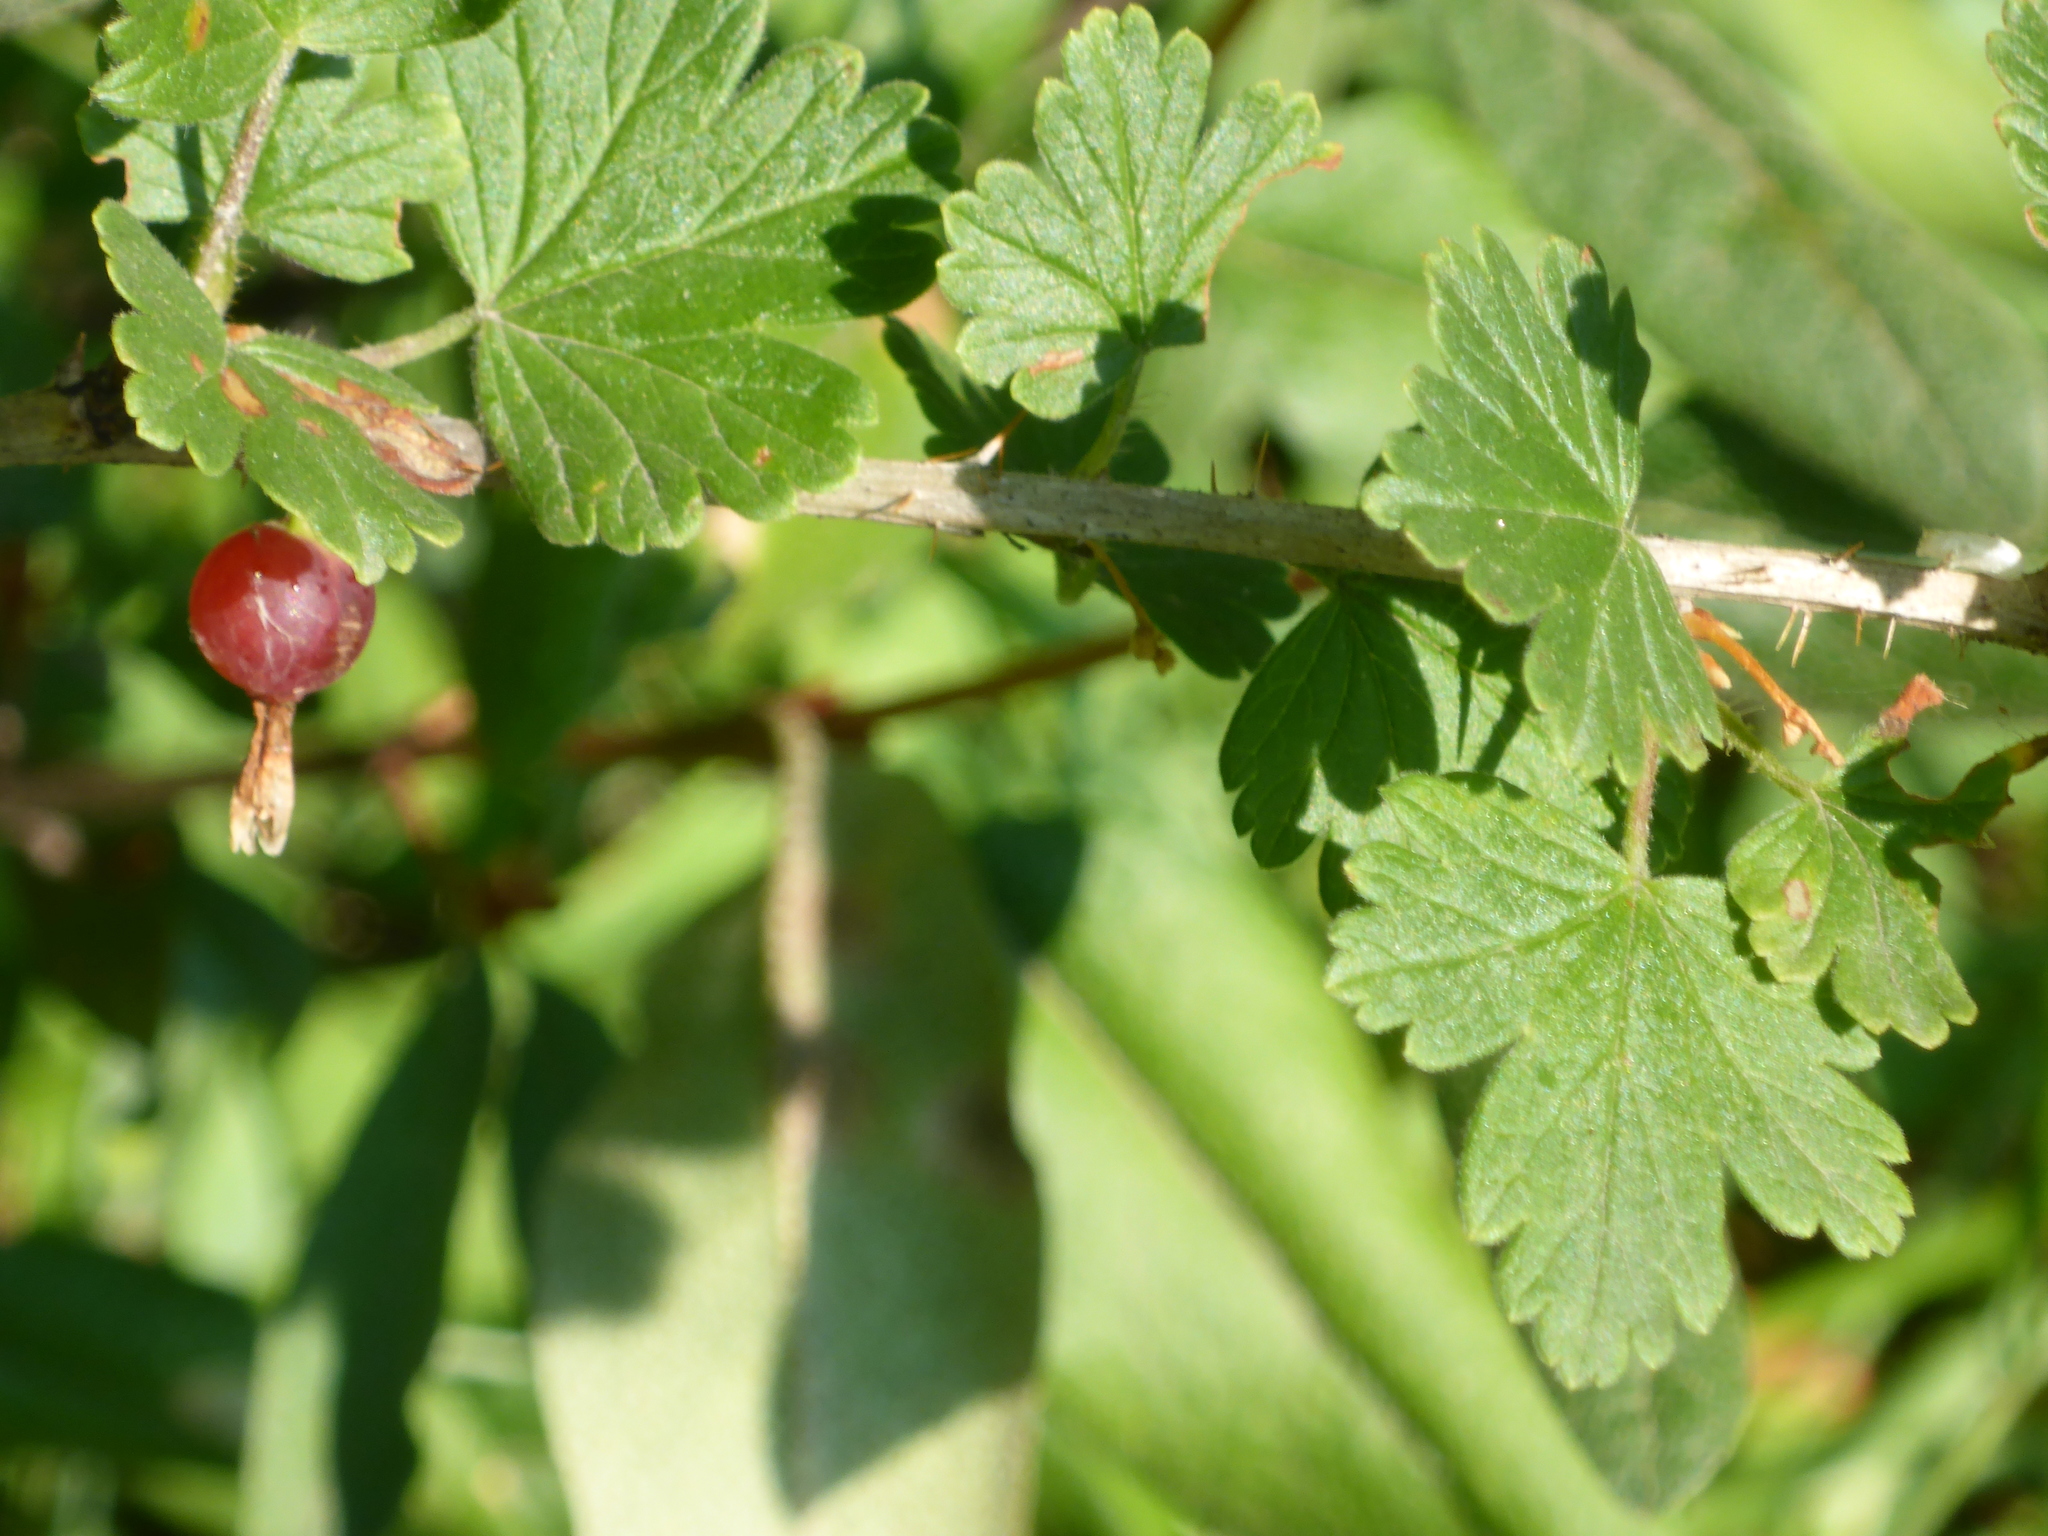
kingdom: Plantae
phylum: Tracheophyta
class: Magnoliopsida
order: Saxifragales
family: Grossulariaceae
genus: Ribes
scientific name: Ribes oxyacanthoides
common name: Northern gooseberry
